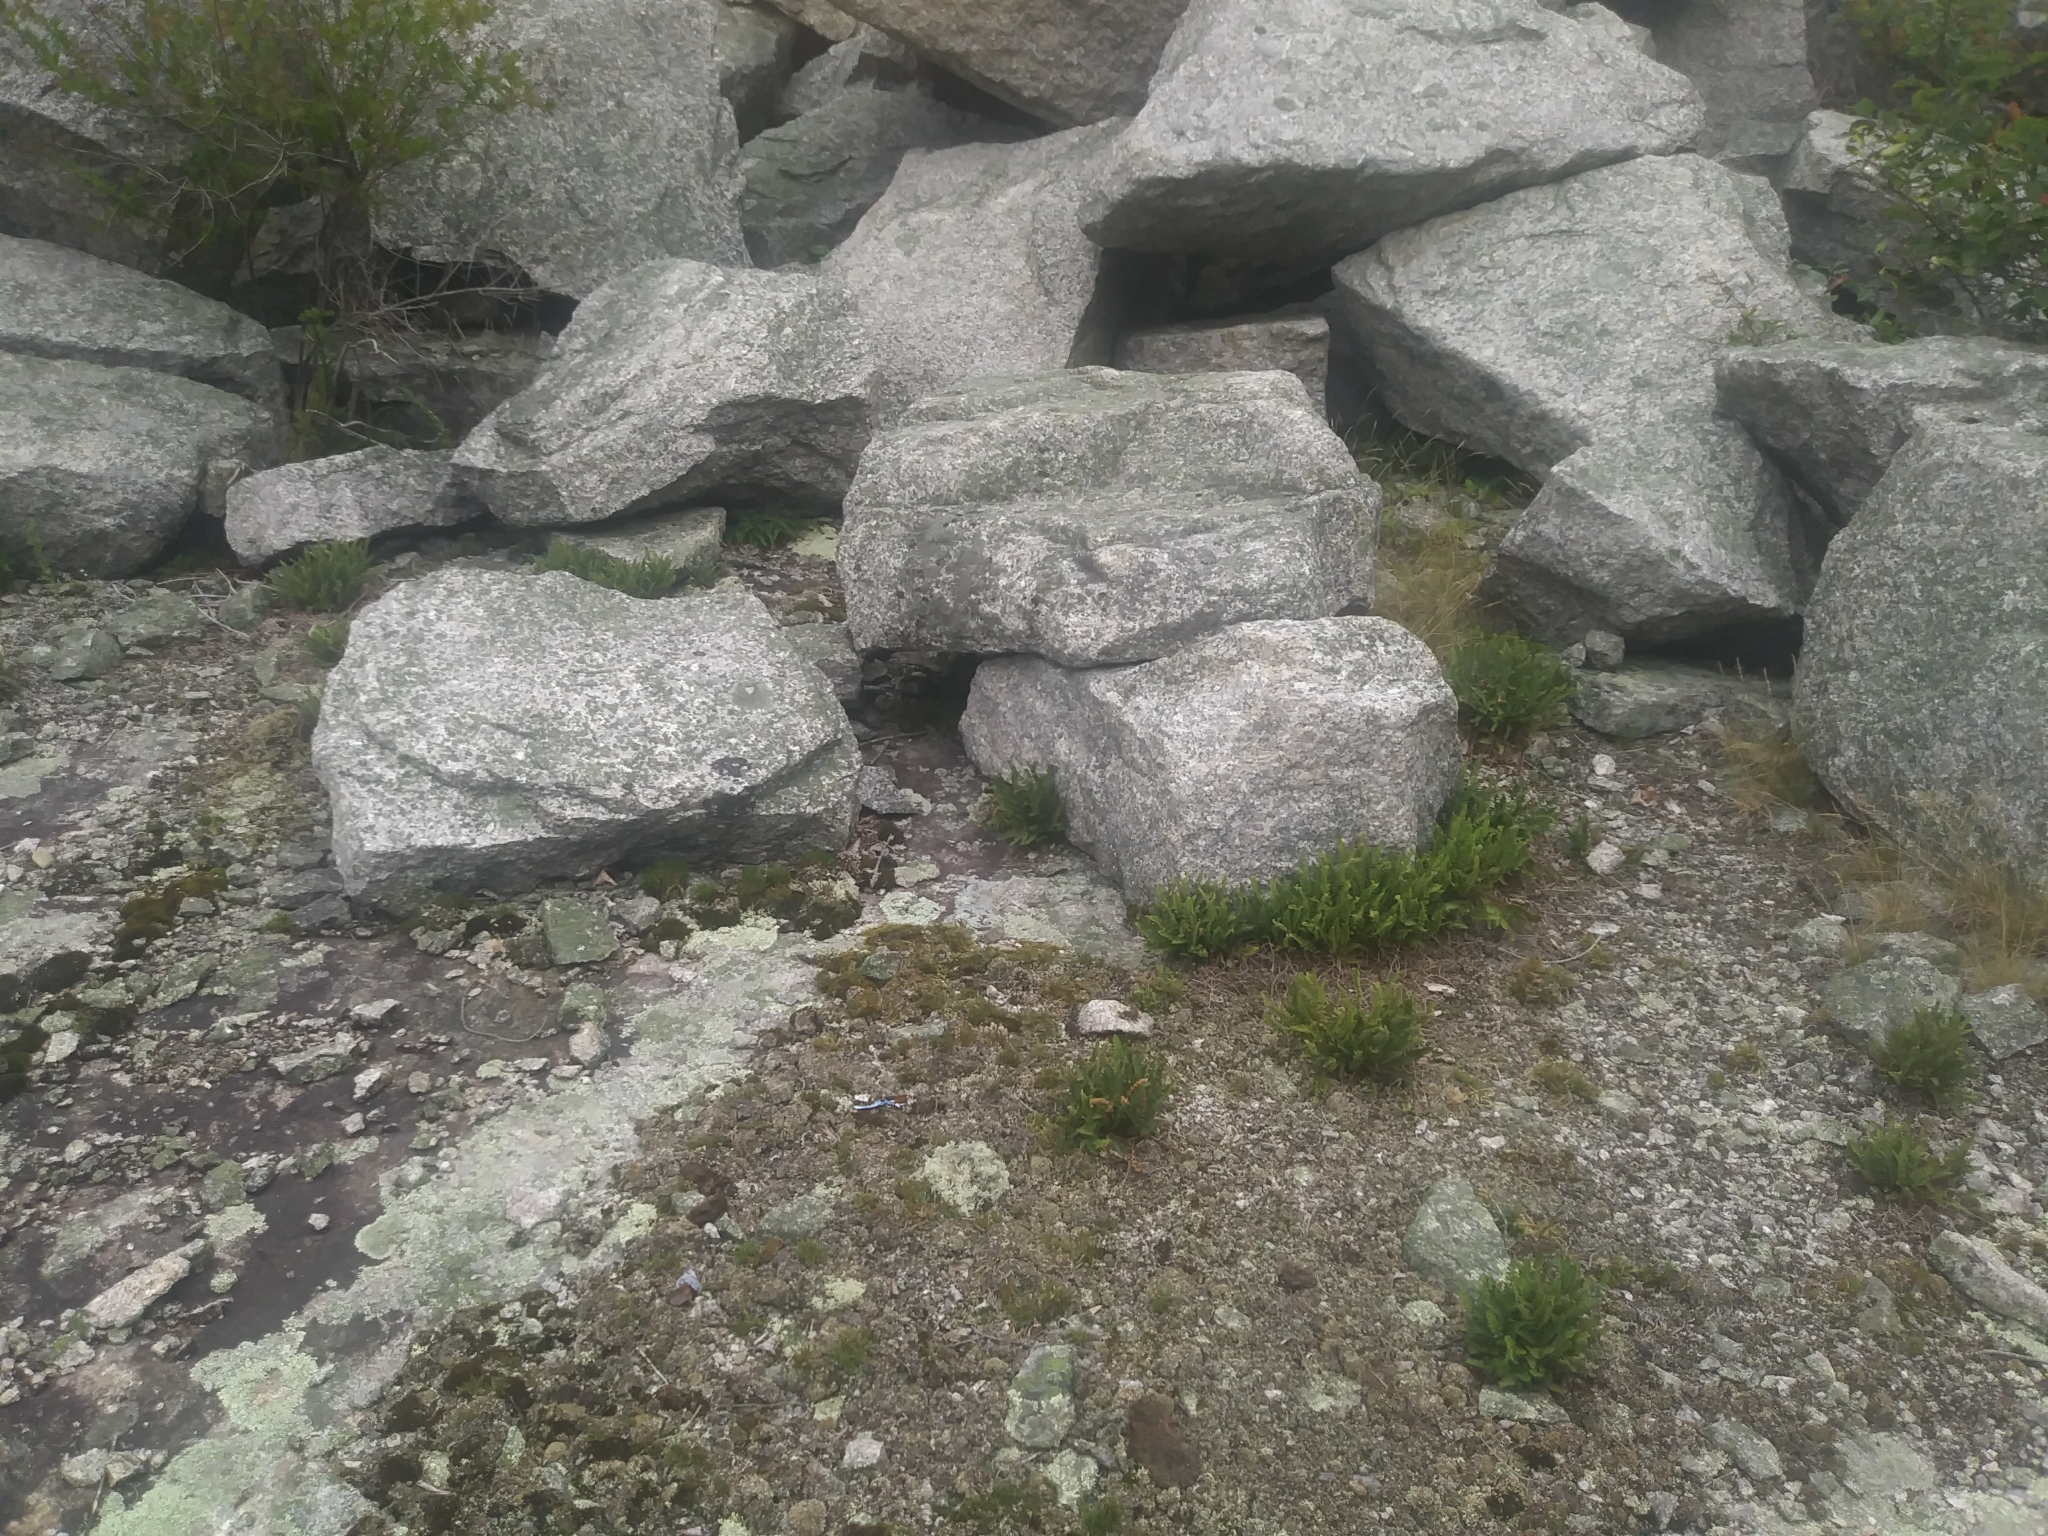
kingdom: Plantae
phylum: Tracheophyta
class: Polypodiopsida
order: Polypodiales
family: Woodsiaceae
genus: Woodsia
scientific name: Woodsia ilvensis
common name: Fragrant woodsia
